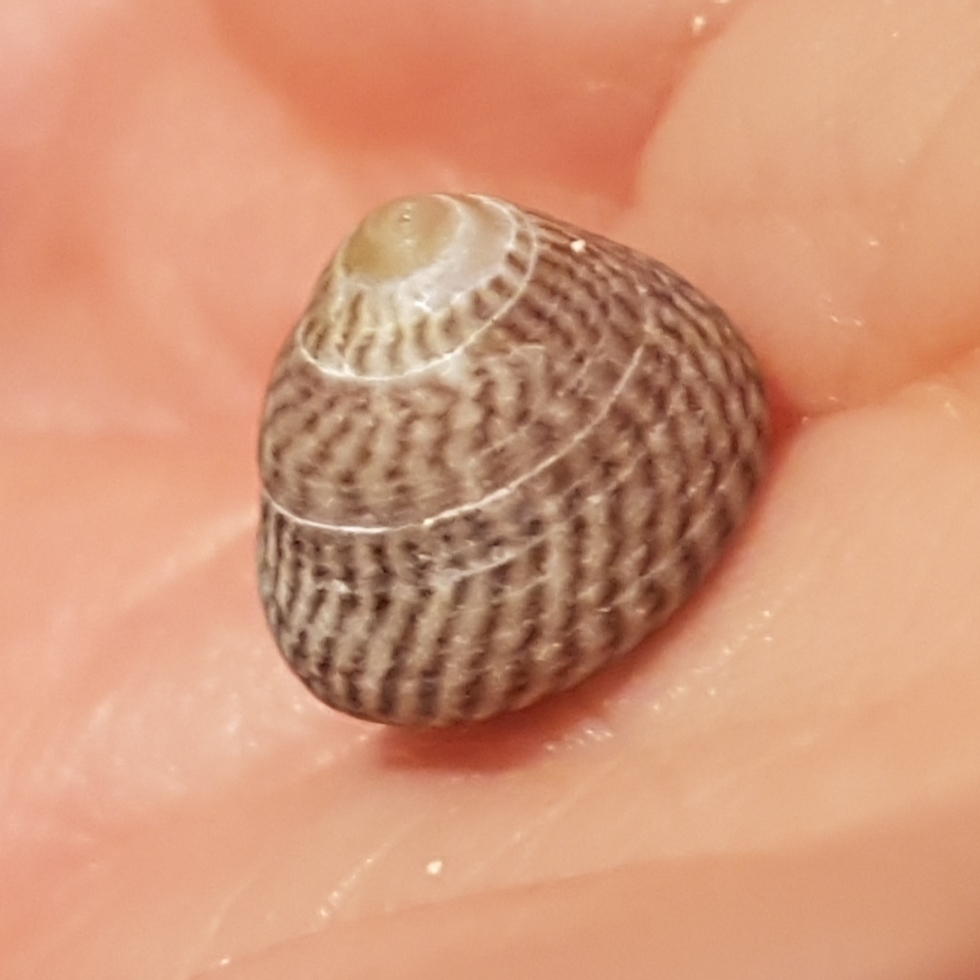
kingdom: Animalia
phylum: Mollusca
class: Gastropoda
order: Trochida
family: Trochidae
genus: Steromphala
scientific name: Steromphala cineraria
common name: Grey top shell
